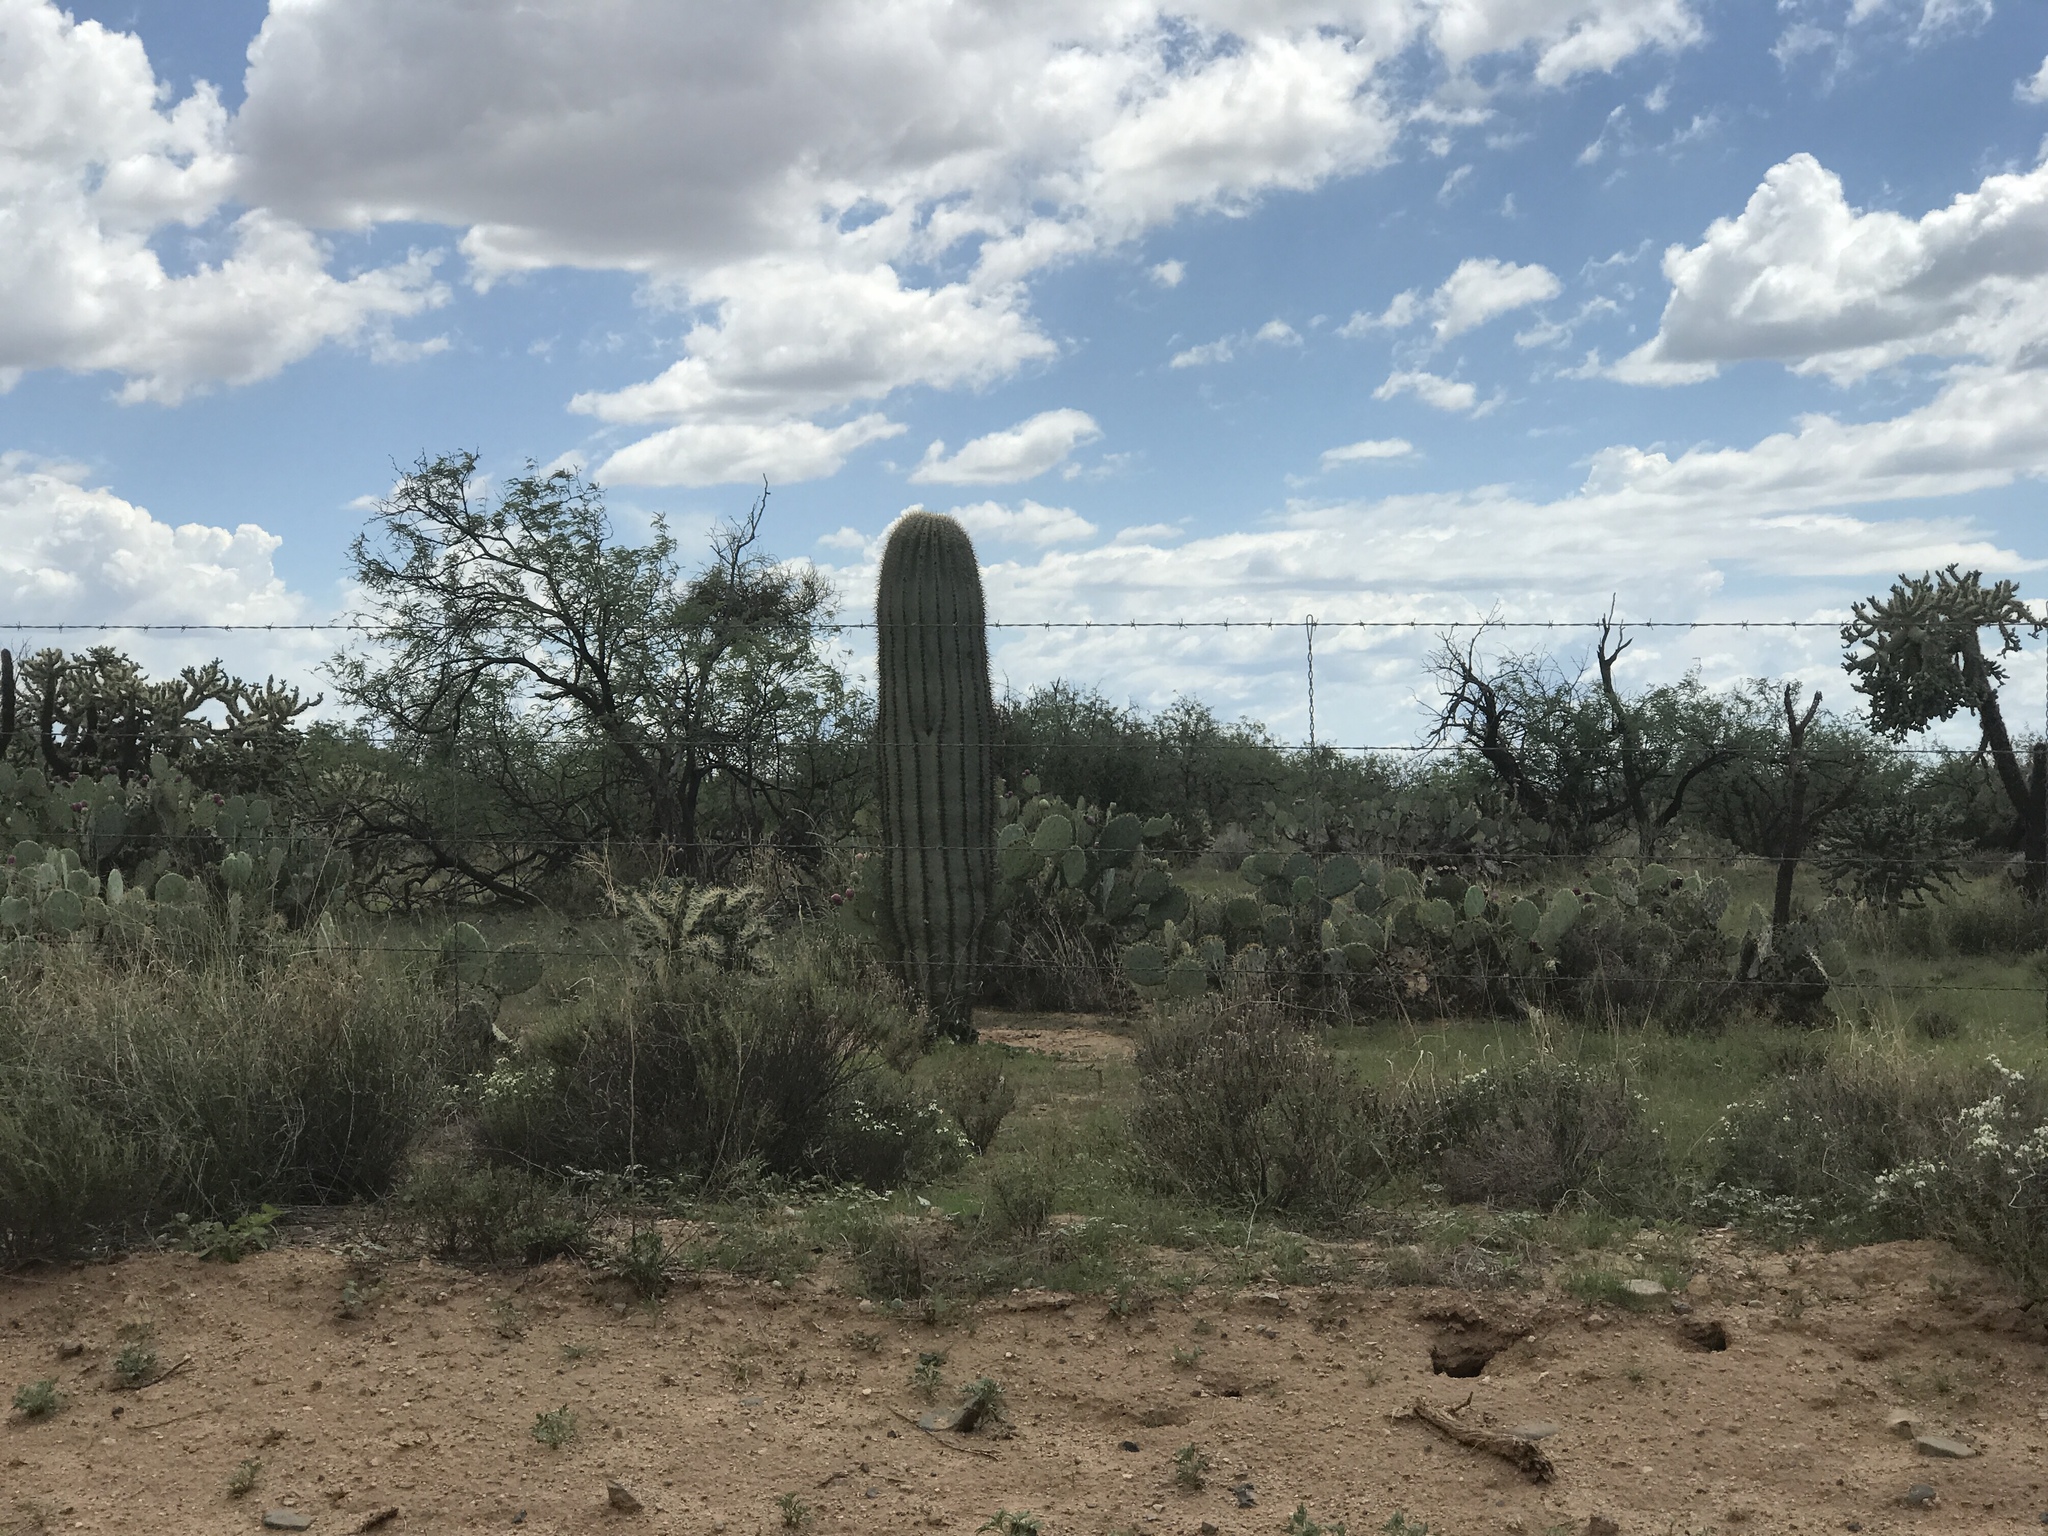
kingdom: Plantae
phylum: Tracheophyta
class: Magnoliopsida
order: Caryophyllales
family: Cactaceae
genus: Carnegiea
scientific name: Carnegiea gigantea
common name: Saguaro
